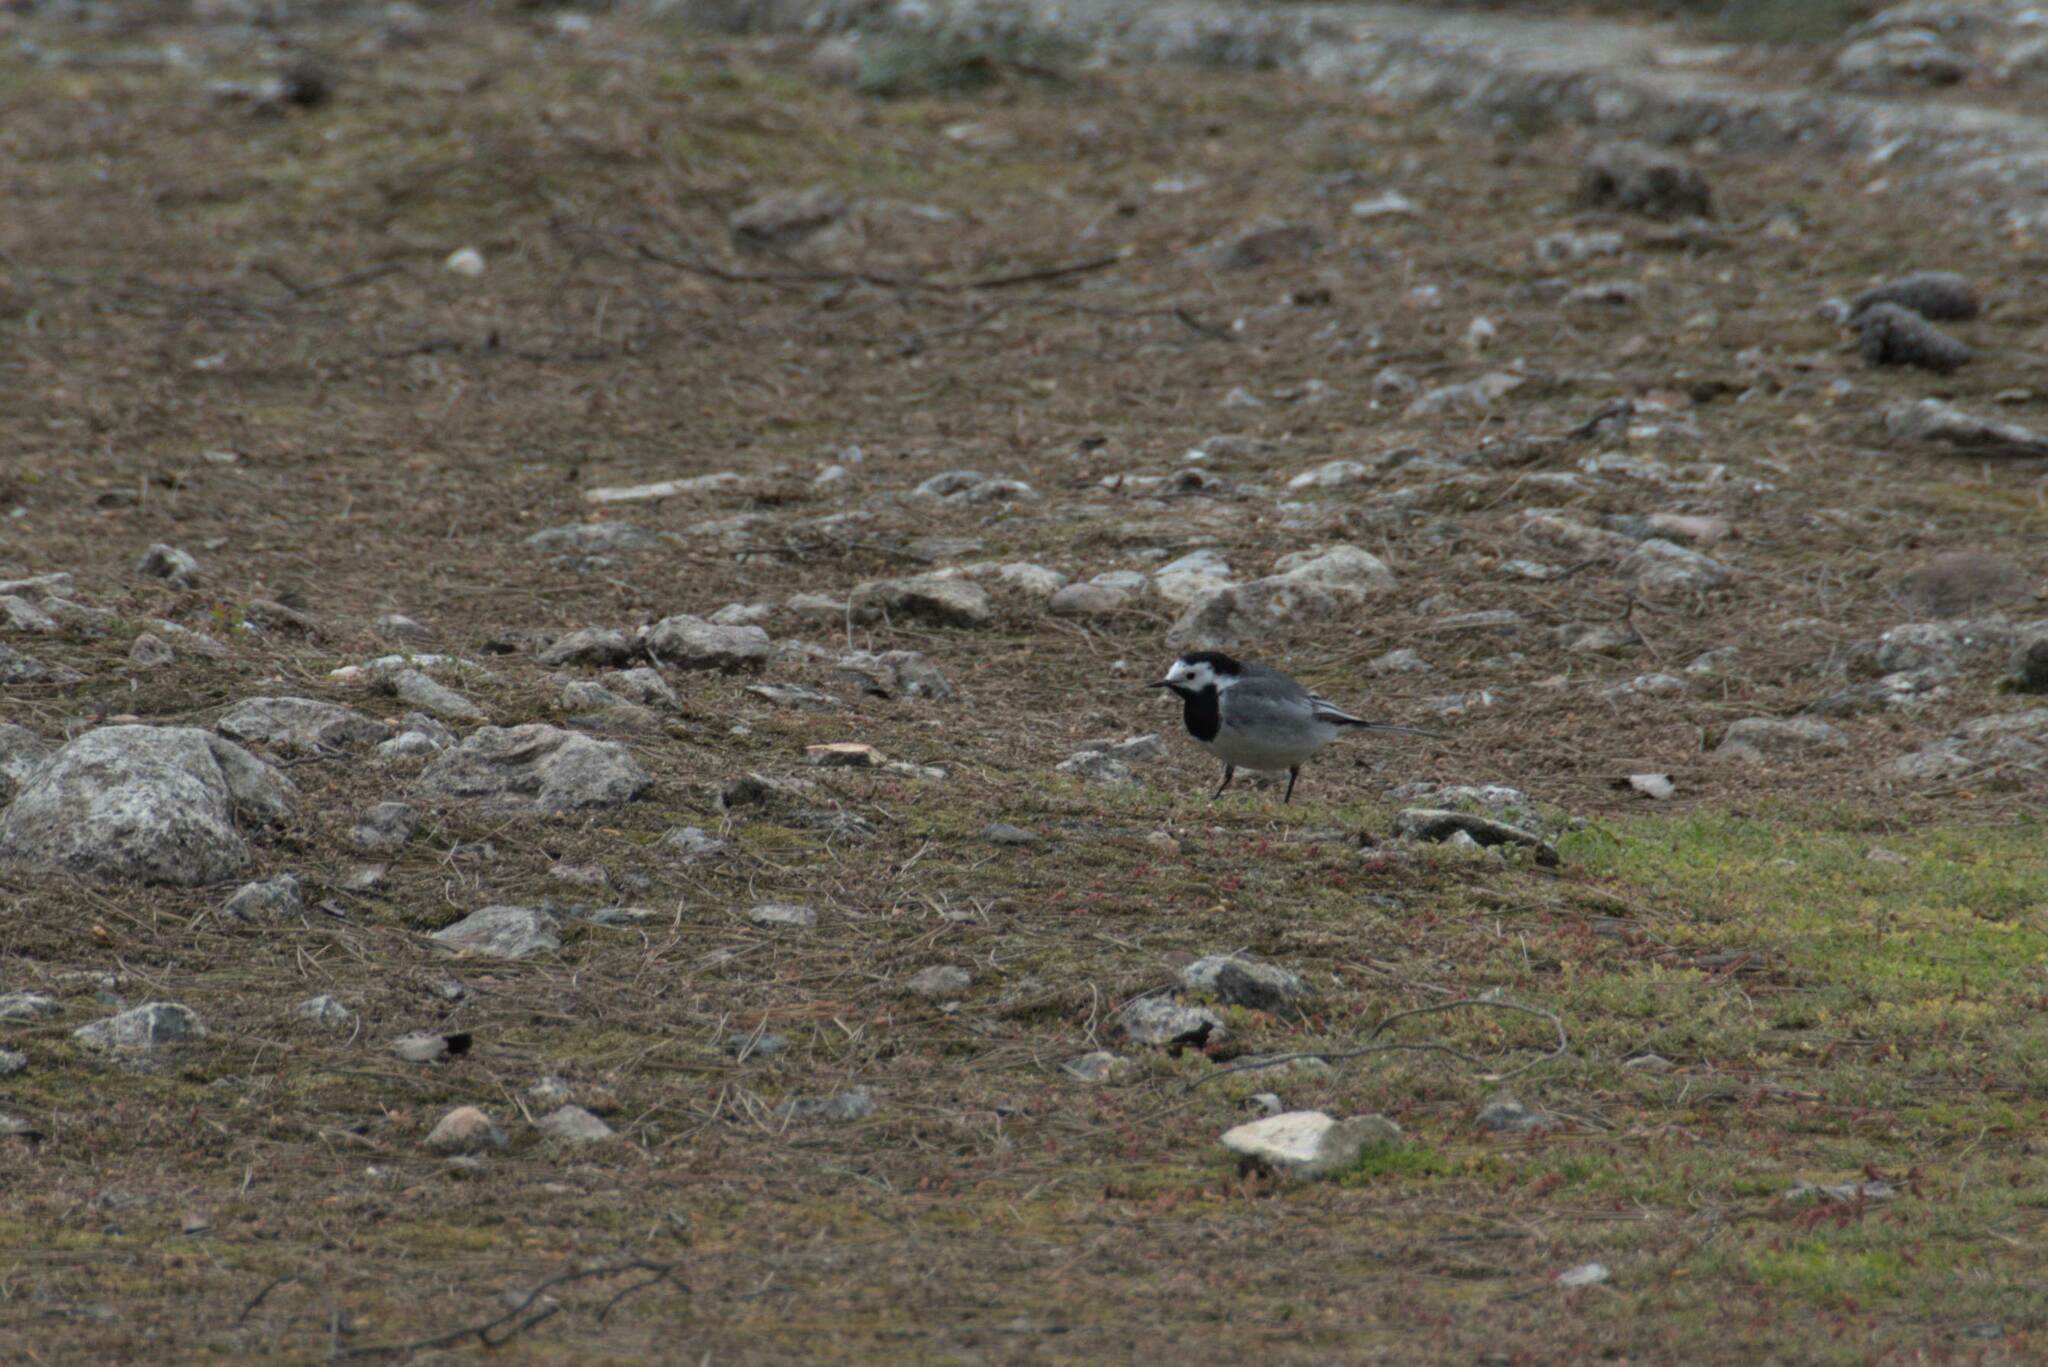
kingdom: Animalia
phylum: Chordata
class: Aves
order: Passeriformes
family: Motacillidae
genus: Motacilla
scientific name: Motacilla alba
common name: White wagtail
